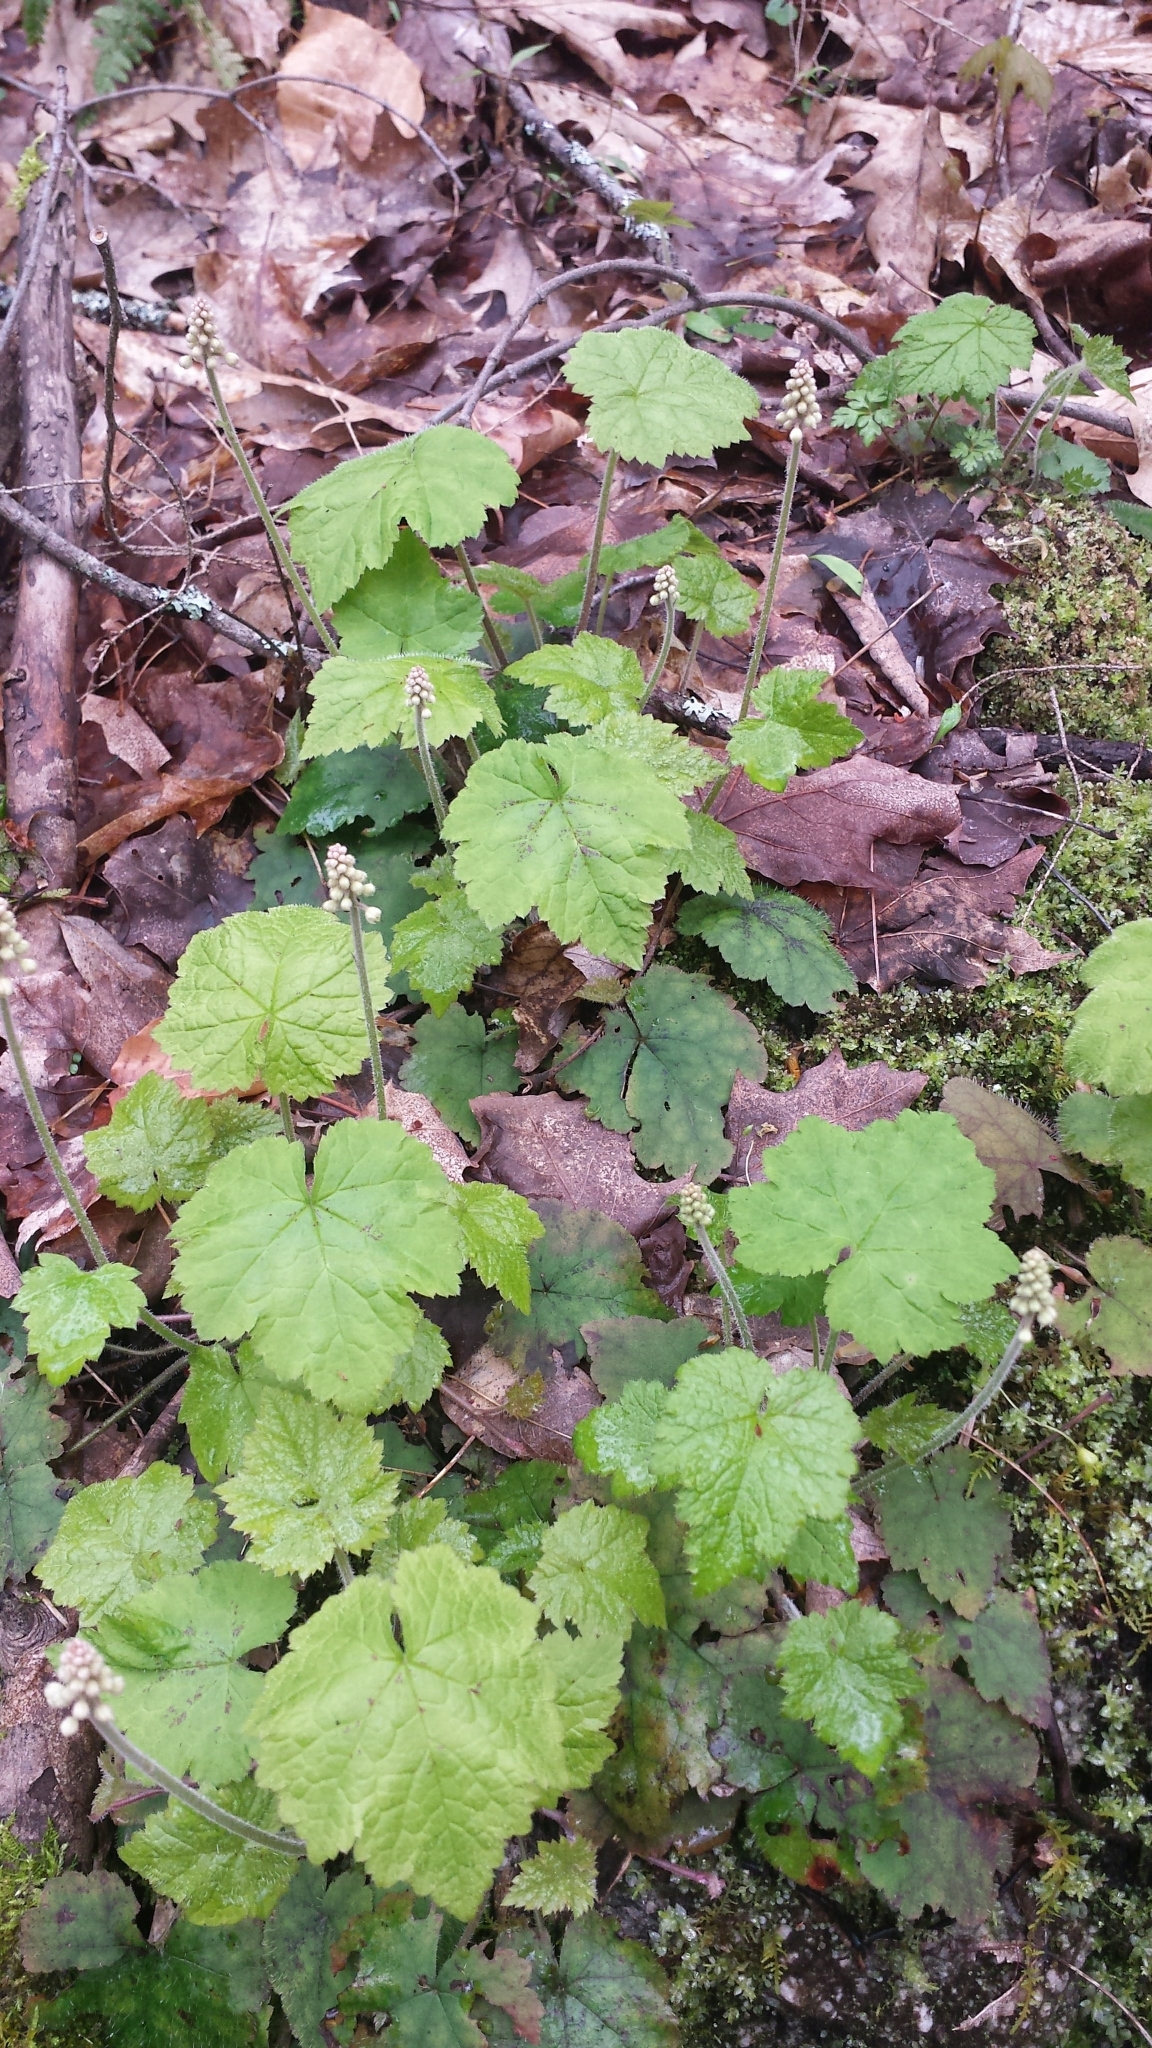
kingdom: Plantae
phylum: Tracheophyta
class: Magnoliopsida
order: Saxifragales
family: Saxifragaceae
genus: Tiarella
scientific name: Tiarella stolonifera
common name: Stoloniferous foamflower
